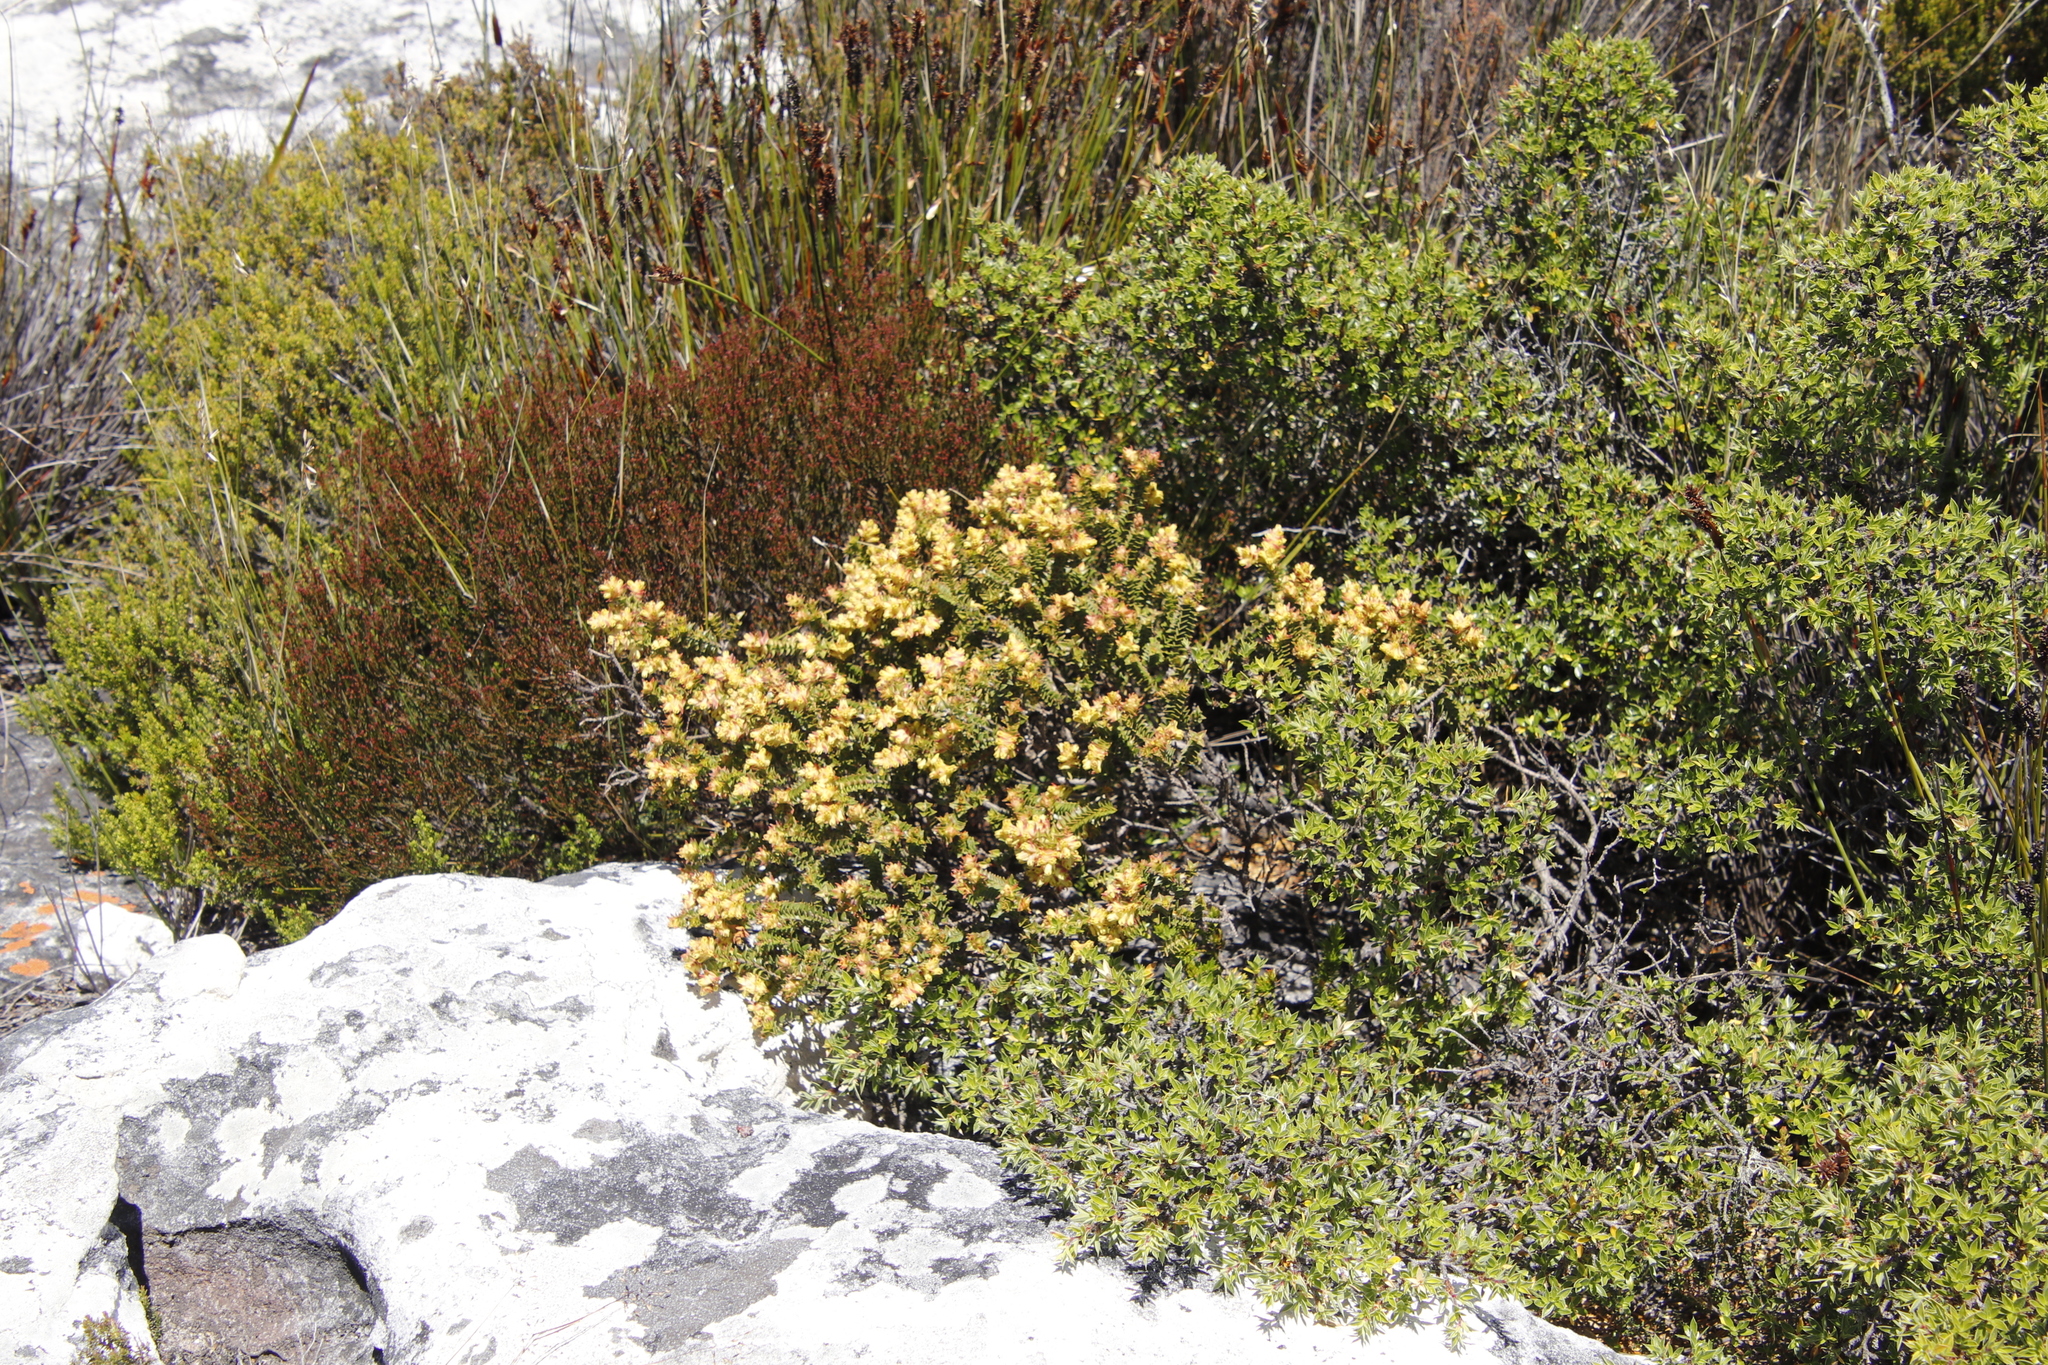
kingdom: Plantae
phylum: Tracheophyta
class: Magnoliopsida
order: Myrtales
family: Penaeaceae
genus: Penaea
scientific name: Penaea mucronata
